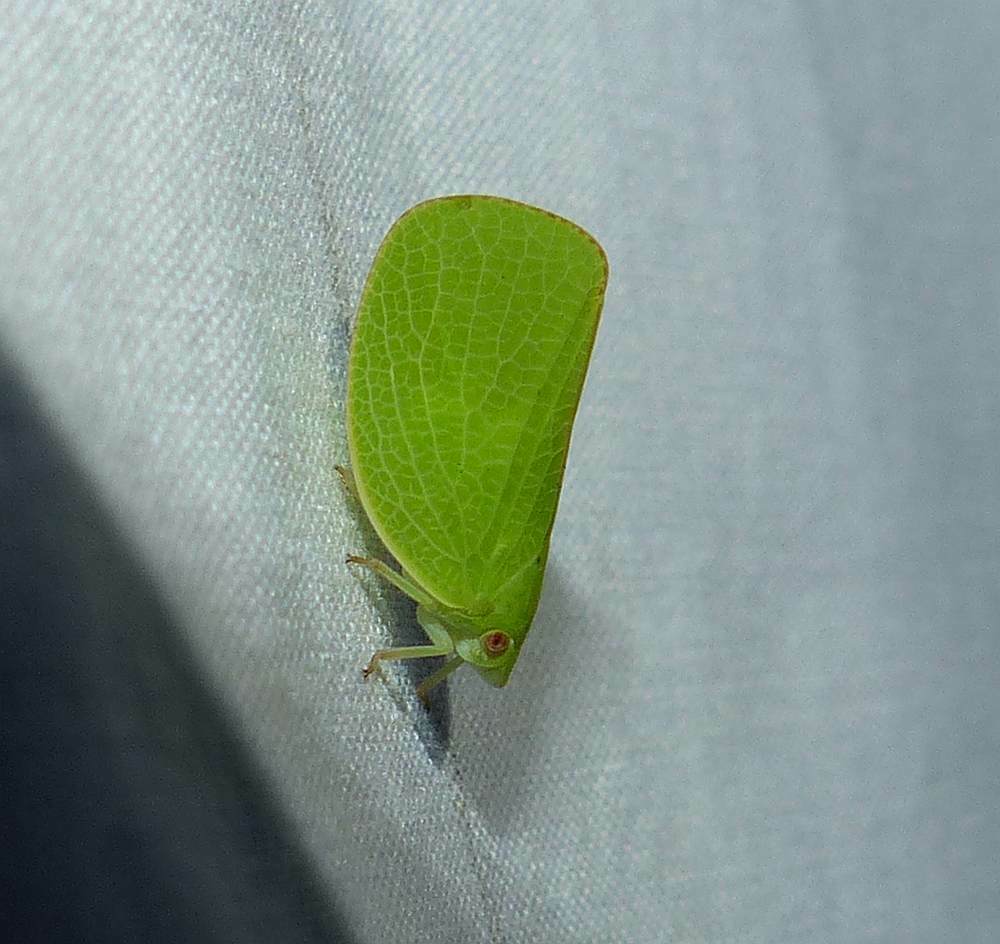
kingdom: Animalia
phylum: Arthropoda
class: Insecta
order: Hemiptera
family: Acanaloniidae
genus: Acanalonia
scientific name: Acanalonia conica
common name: Green cone-headed planthopper
